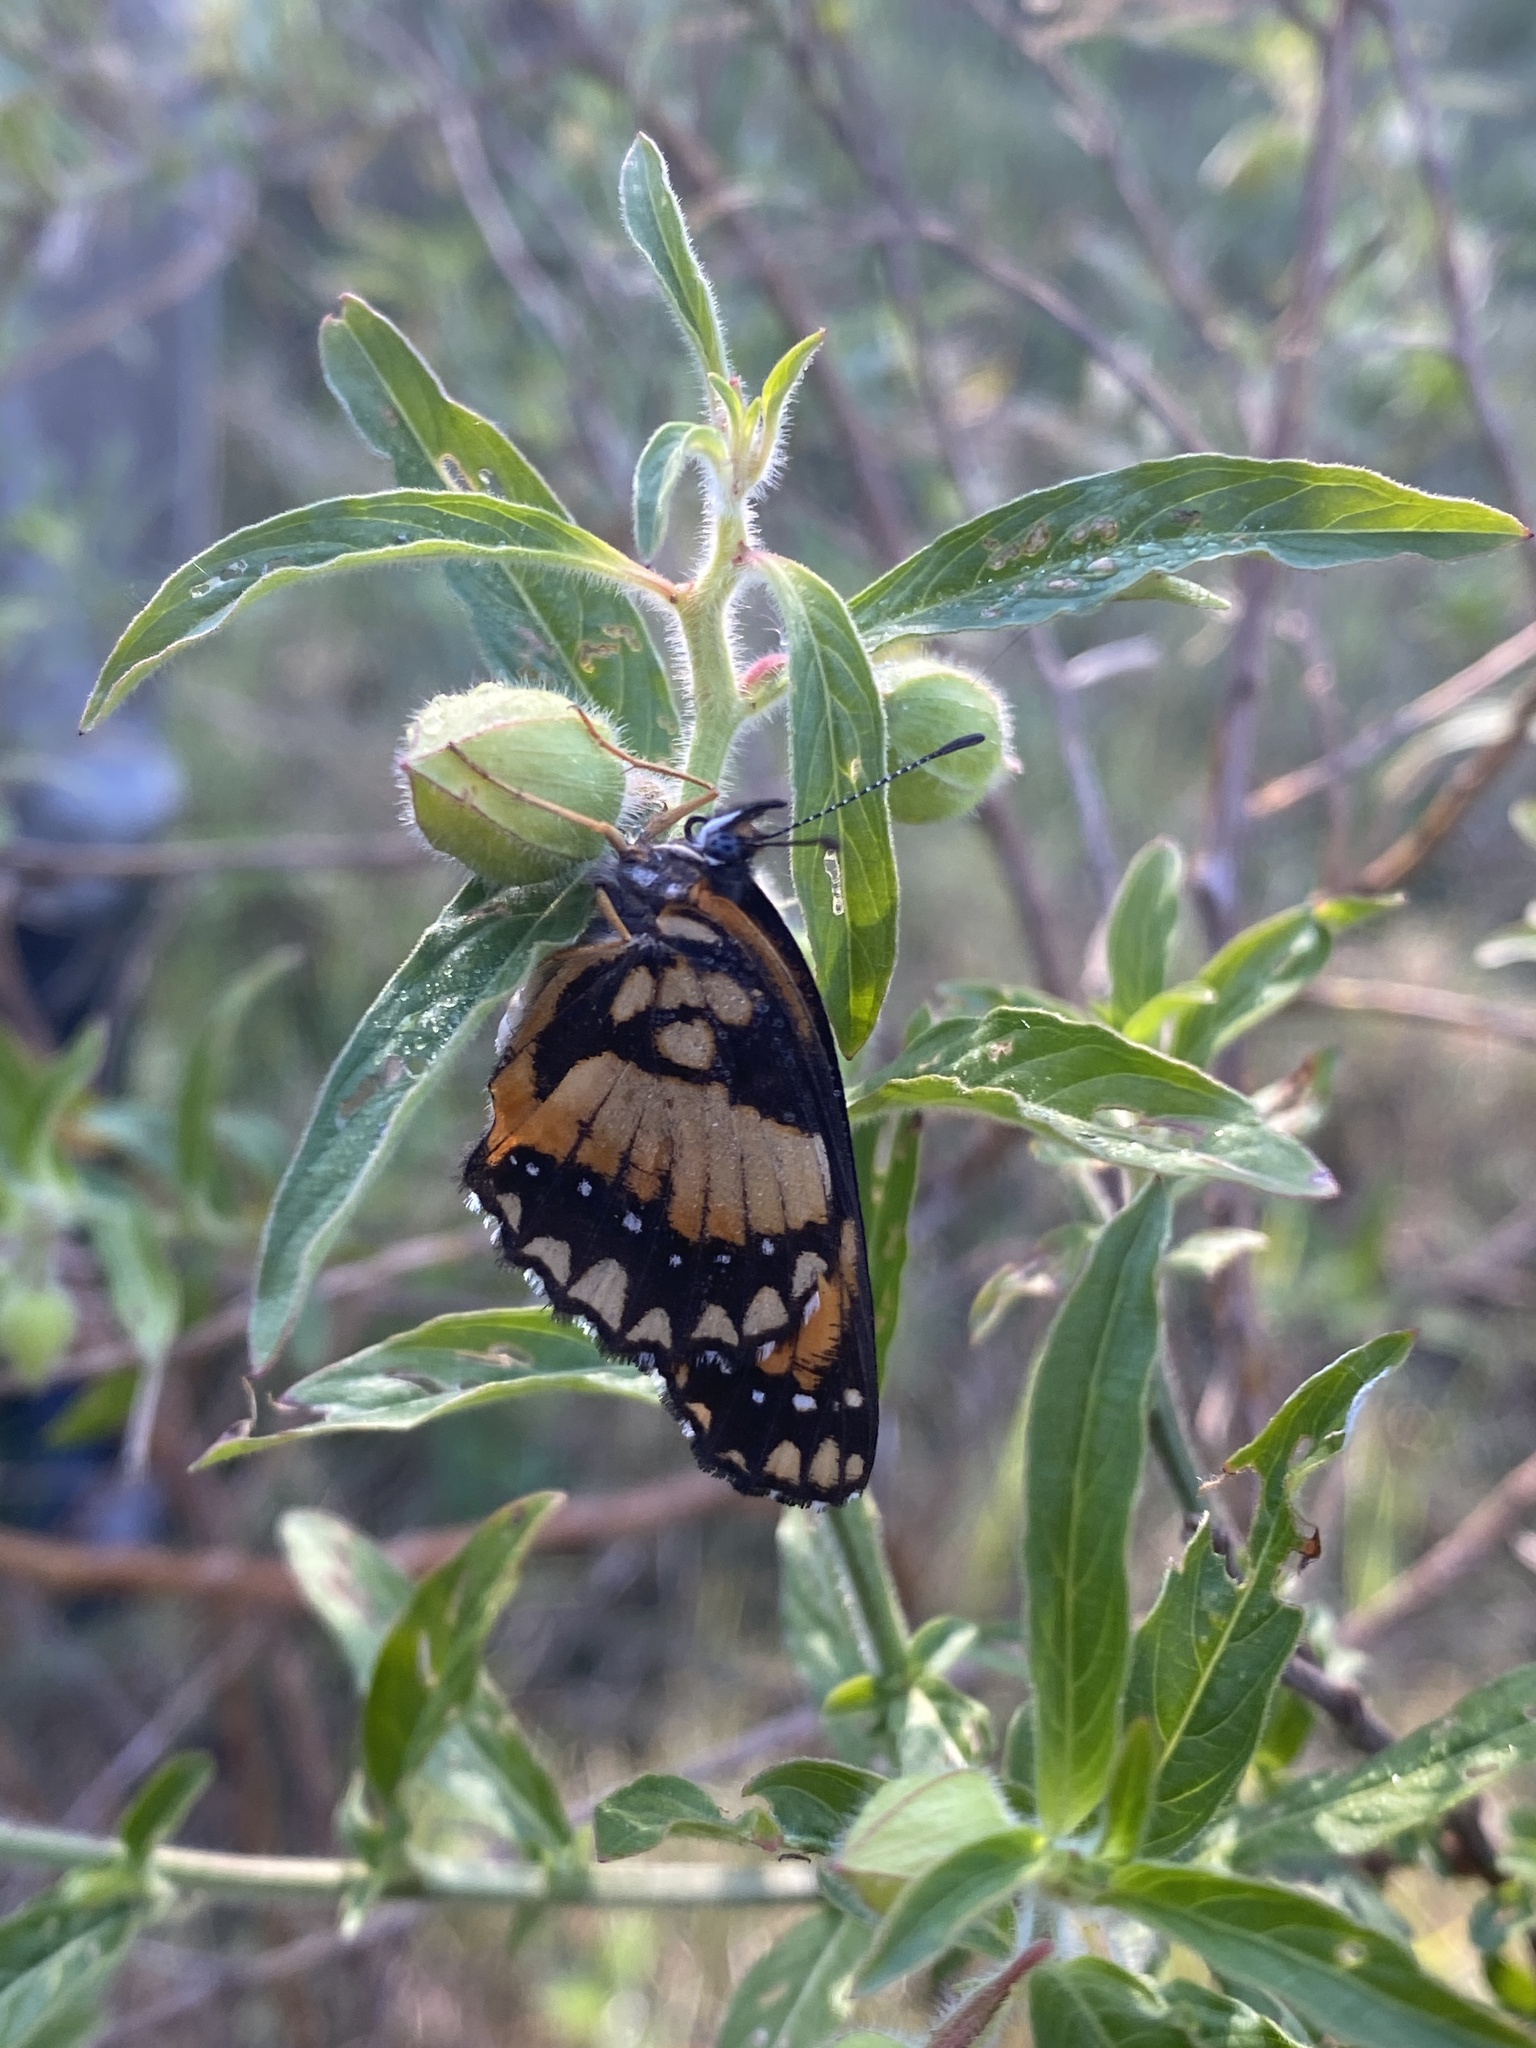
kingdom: Animalia
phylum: Arthropoda
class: Insecta
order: Lepidoptera
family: Nymphalidae
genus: Chlosyne
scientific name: Chlosyne lacinia
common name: Bordered patch
